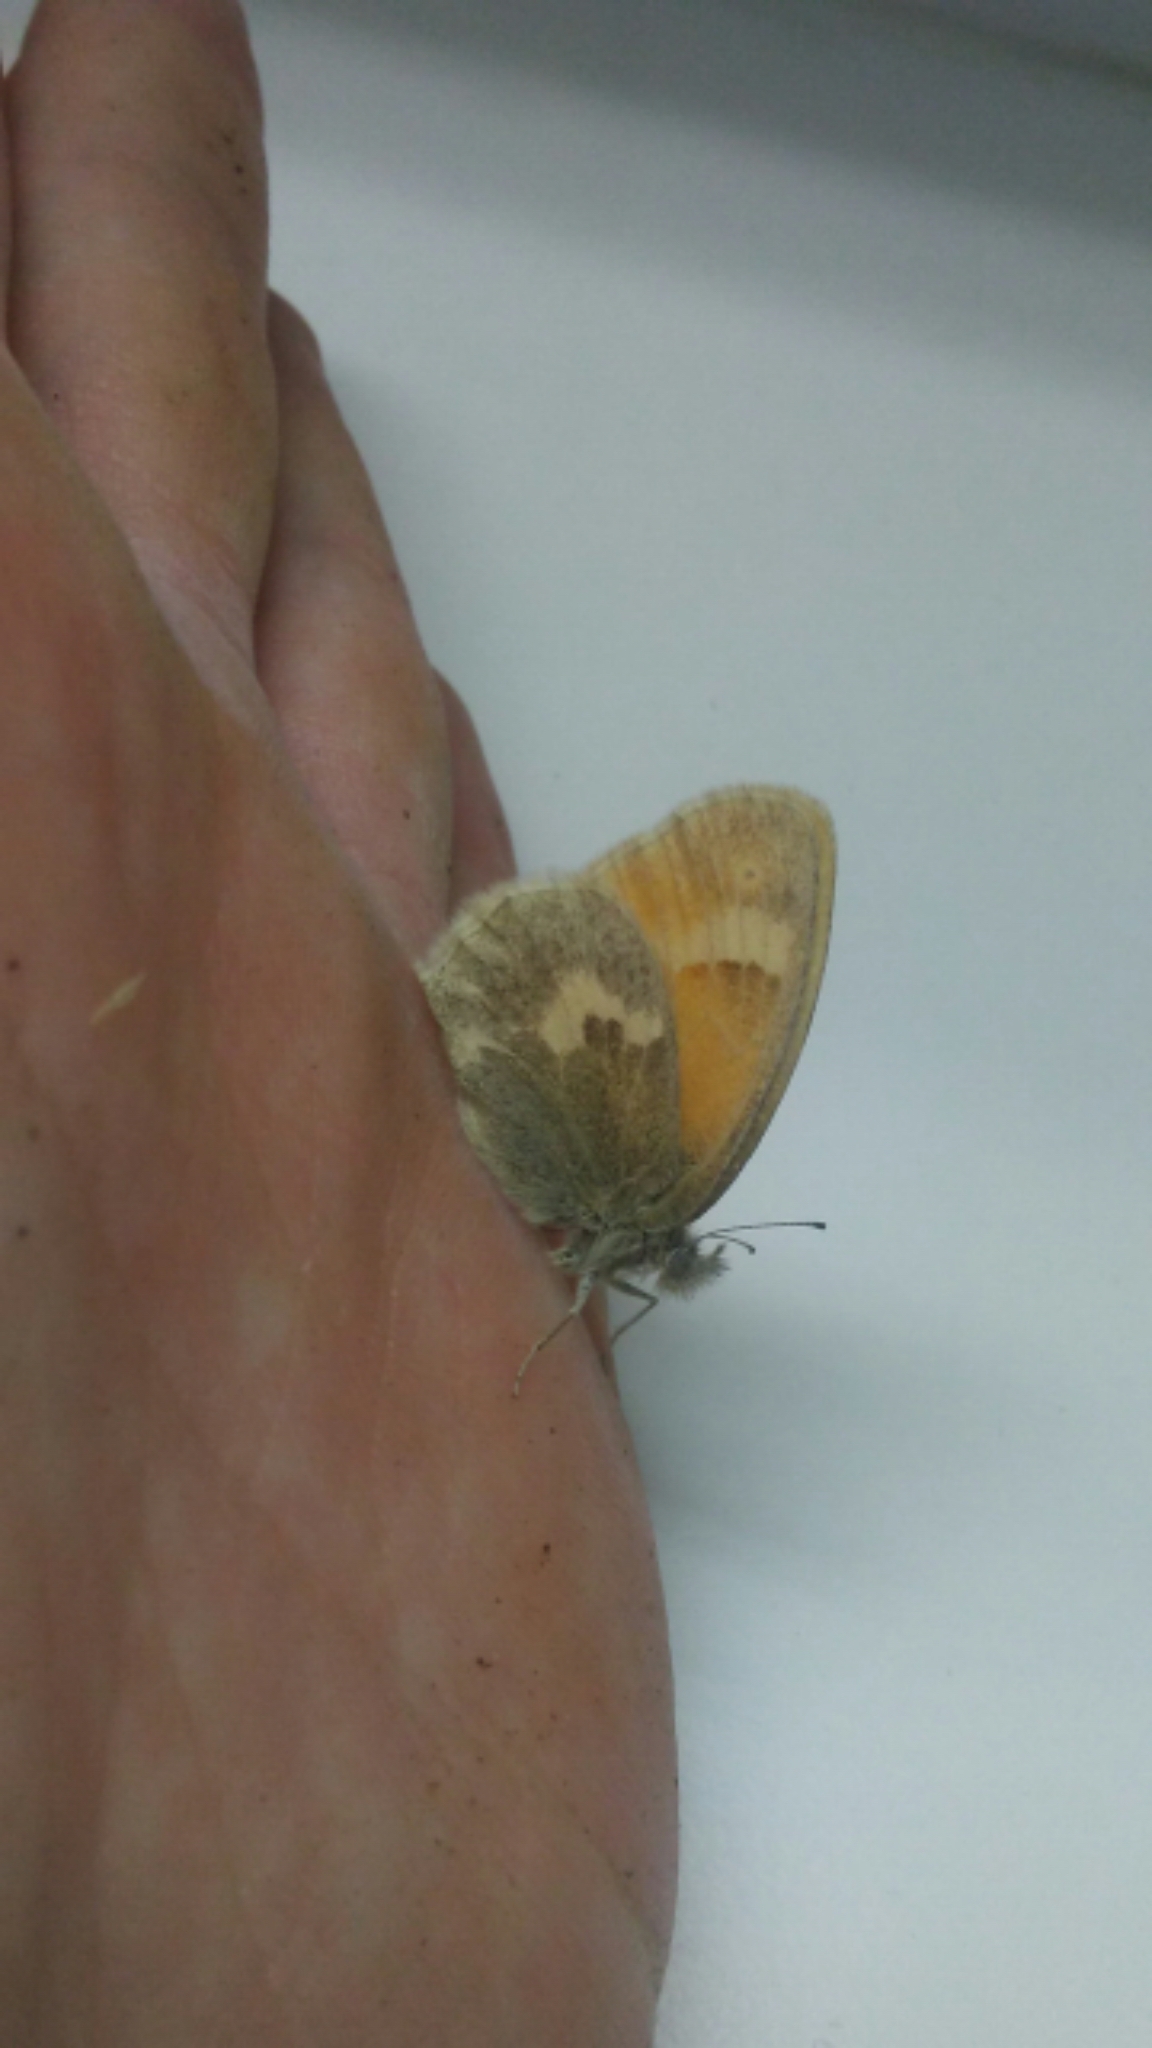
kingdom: Animalia
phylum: Arthropoda
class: Insecta
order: Lepidoptera
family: Nymphalidae
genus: Coenonympha
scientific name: Coenonympha california
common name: Common ringlet
